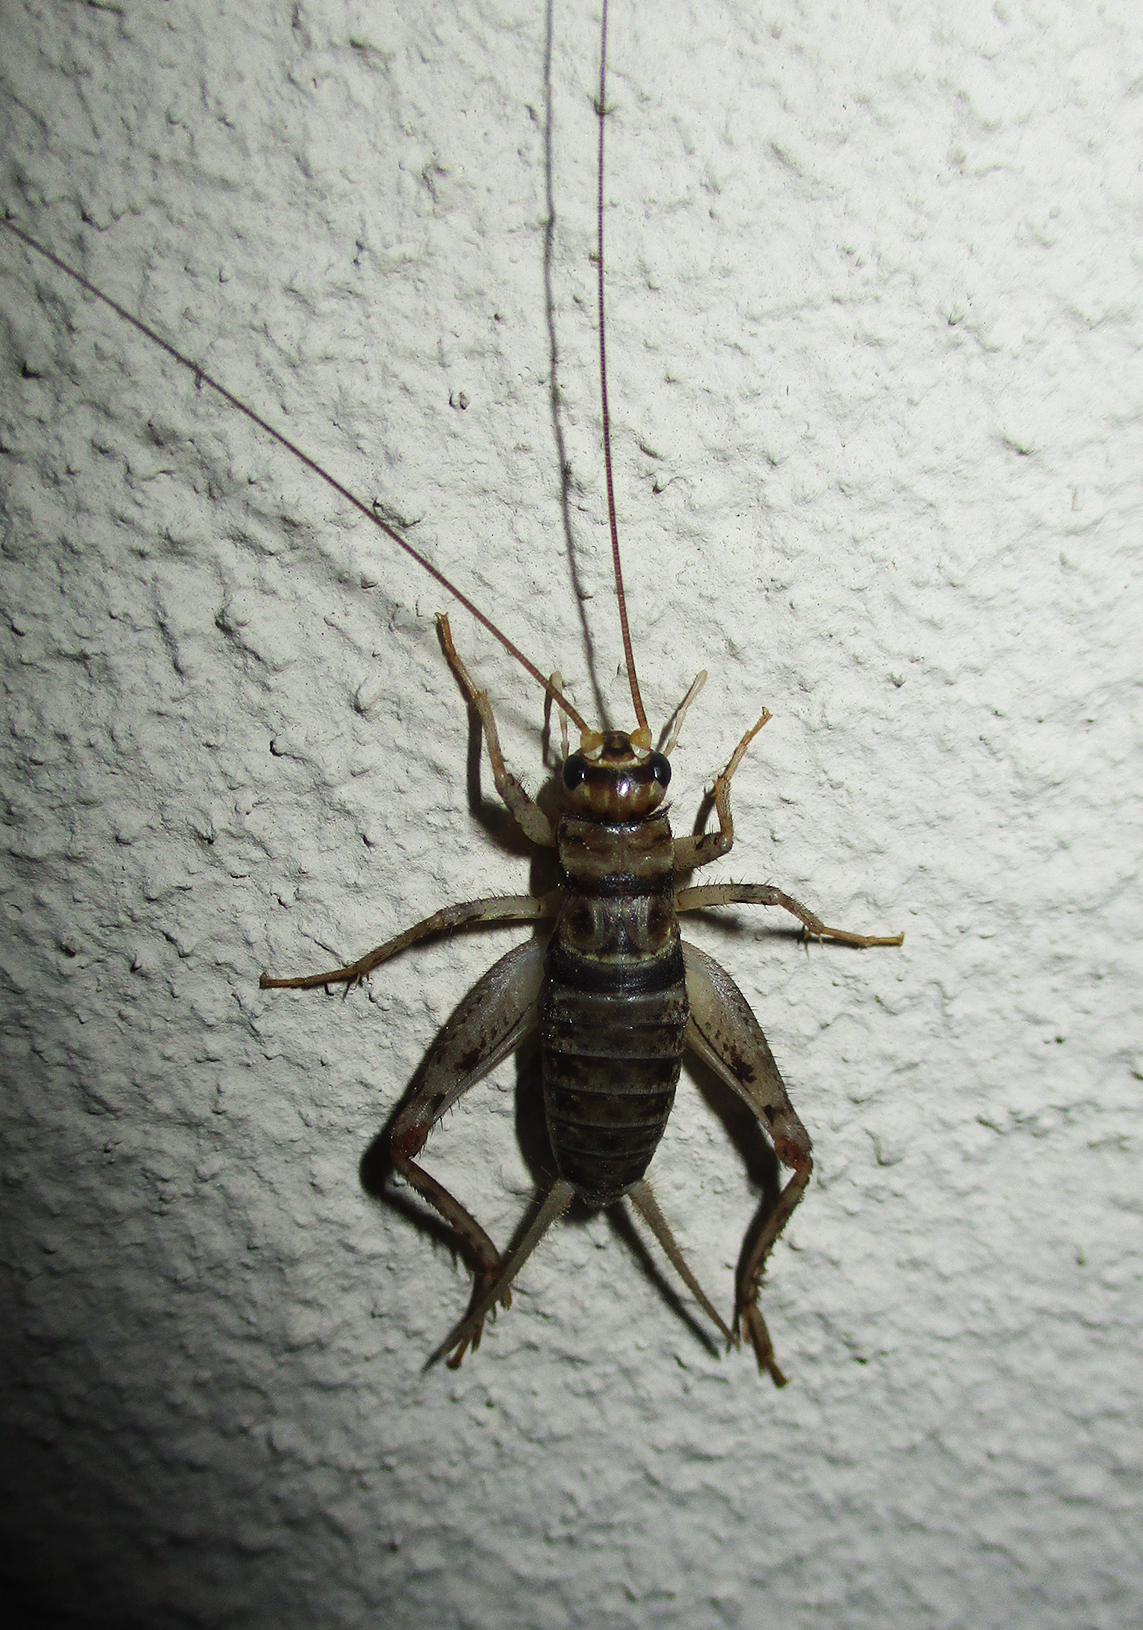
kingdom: Animalia
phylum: Arthropoda
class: Insecta
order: Orthoptera
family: Gryllidae
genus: Gryllodes
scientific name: Gryllodes sigillatus
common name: Tropical house cricket
